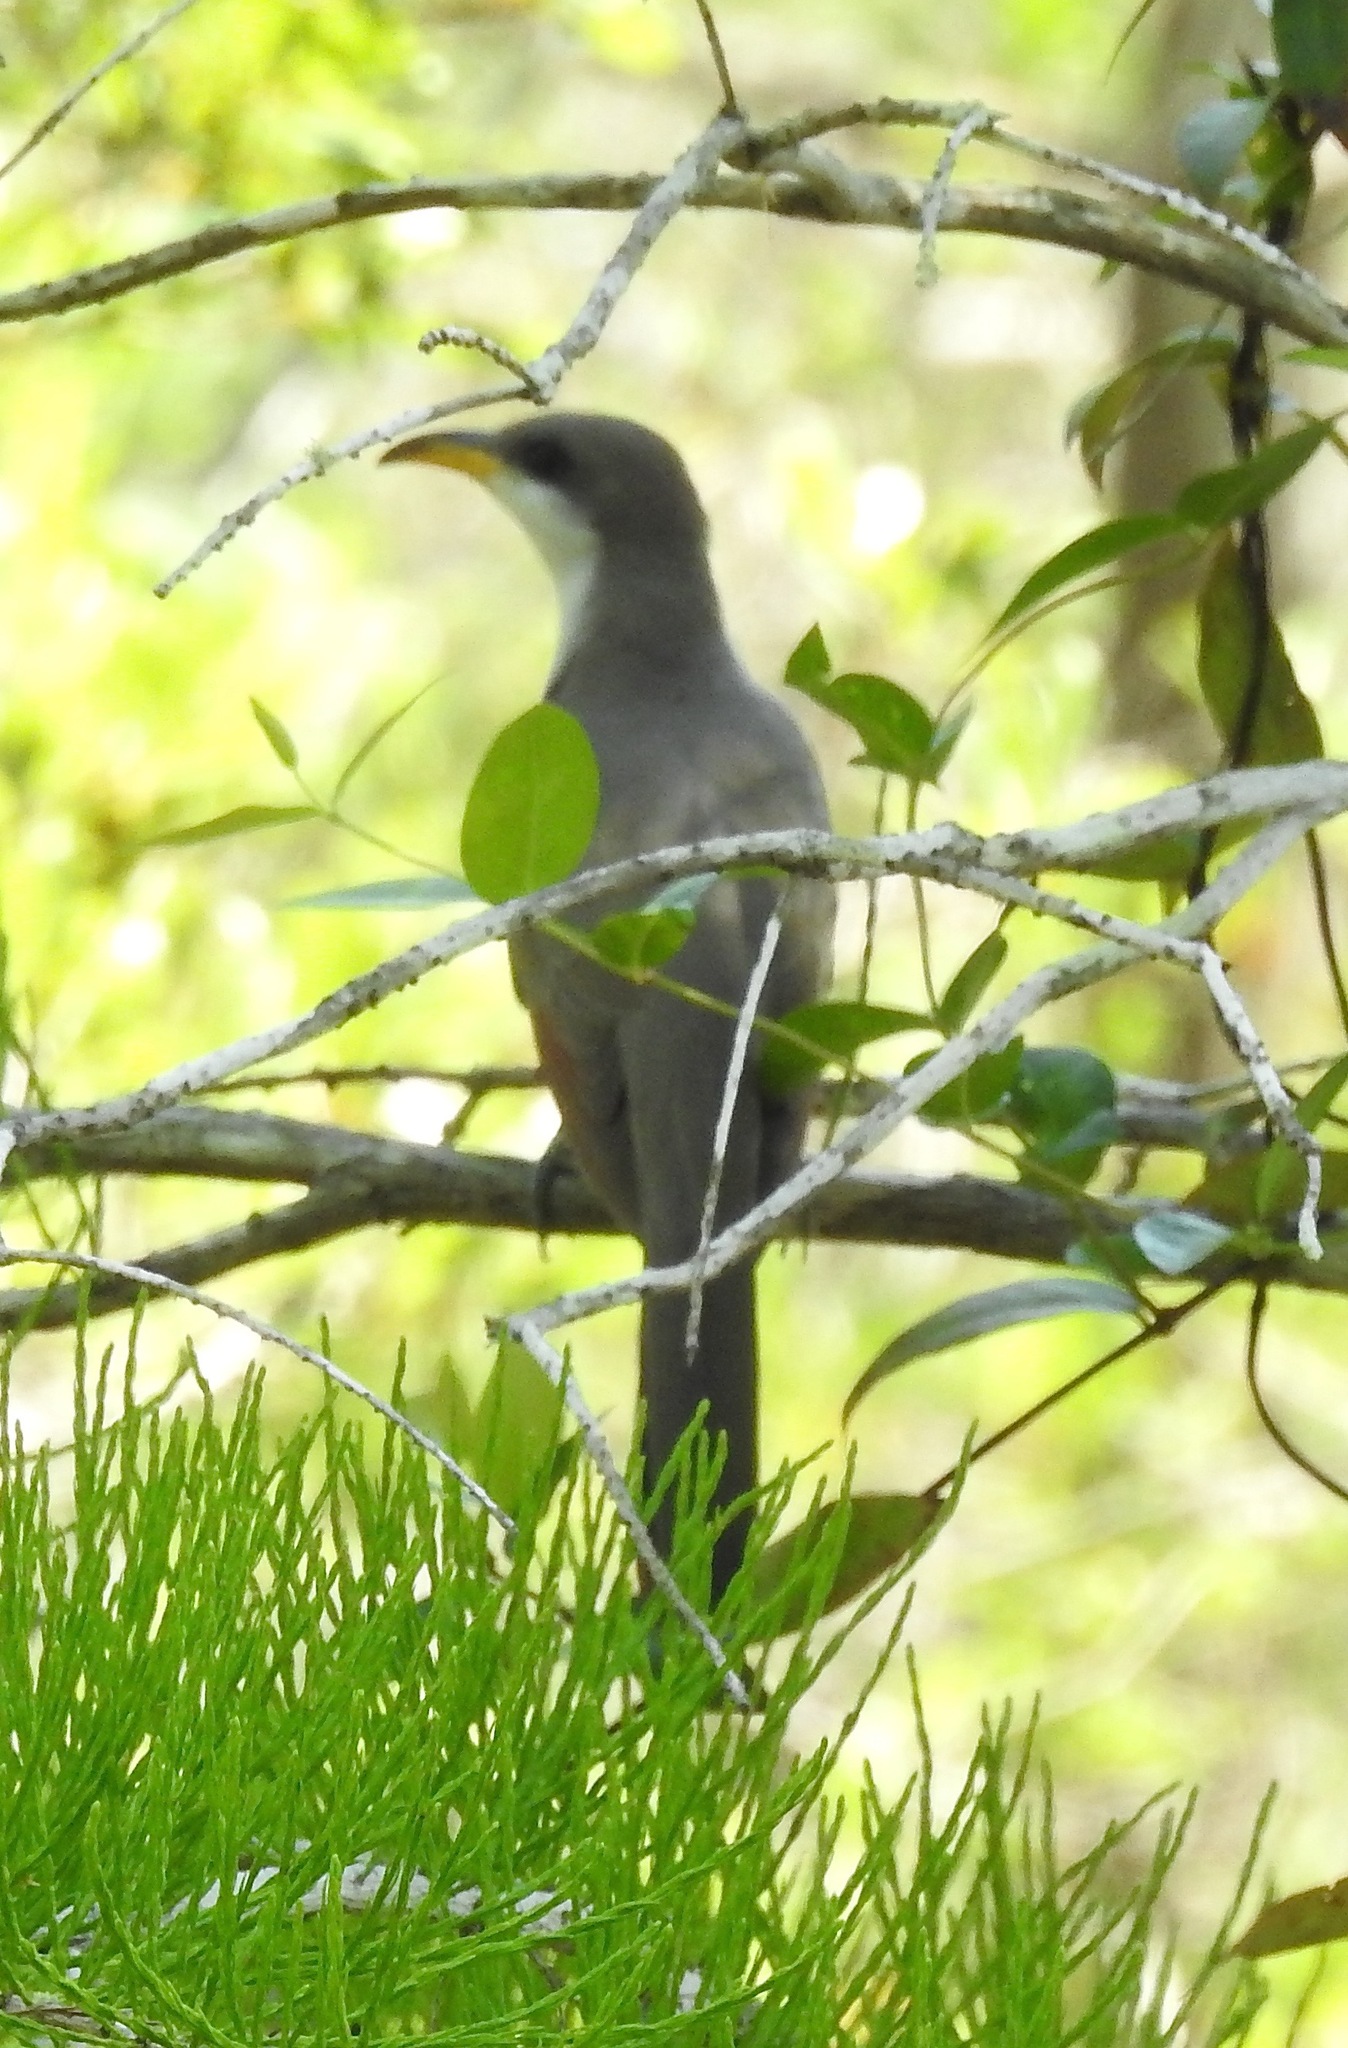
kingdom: Animalia
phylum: Chordata
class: Aves
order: Cuculiformes
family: Cuculidae
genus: Coccyzus
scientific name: Coccyzus americanus
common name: Yellow-billed cuckoo
